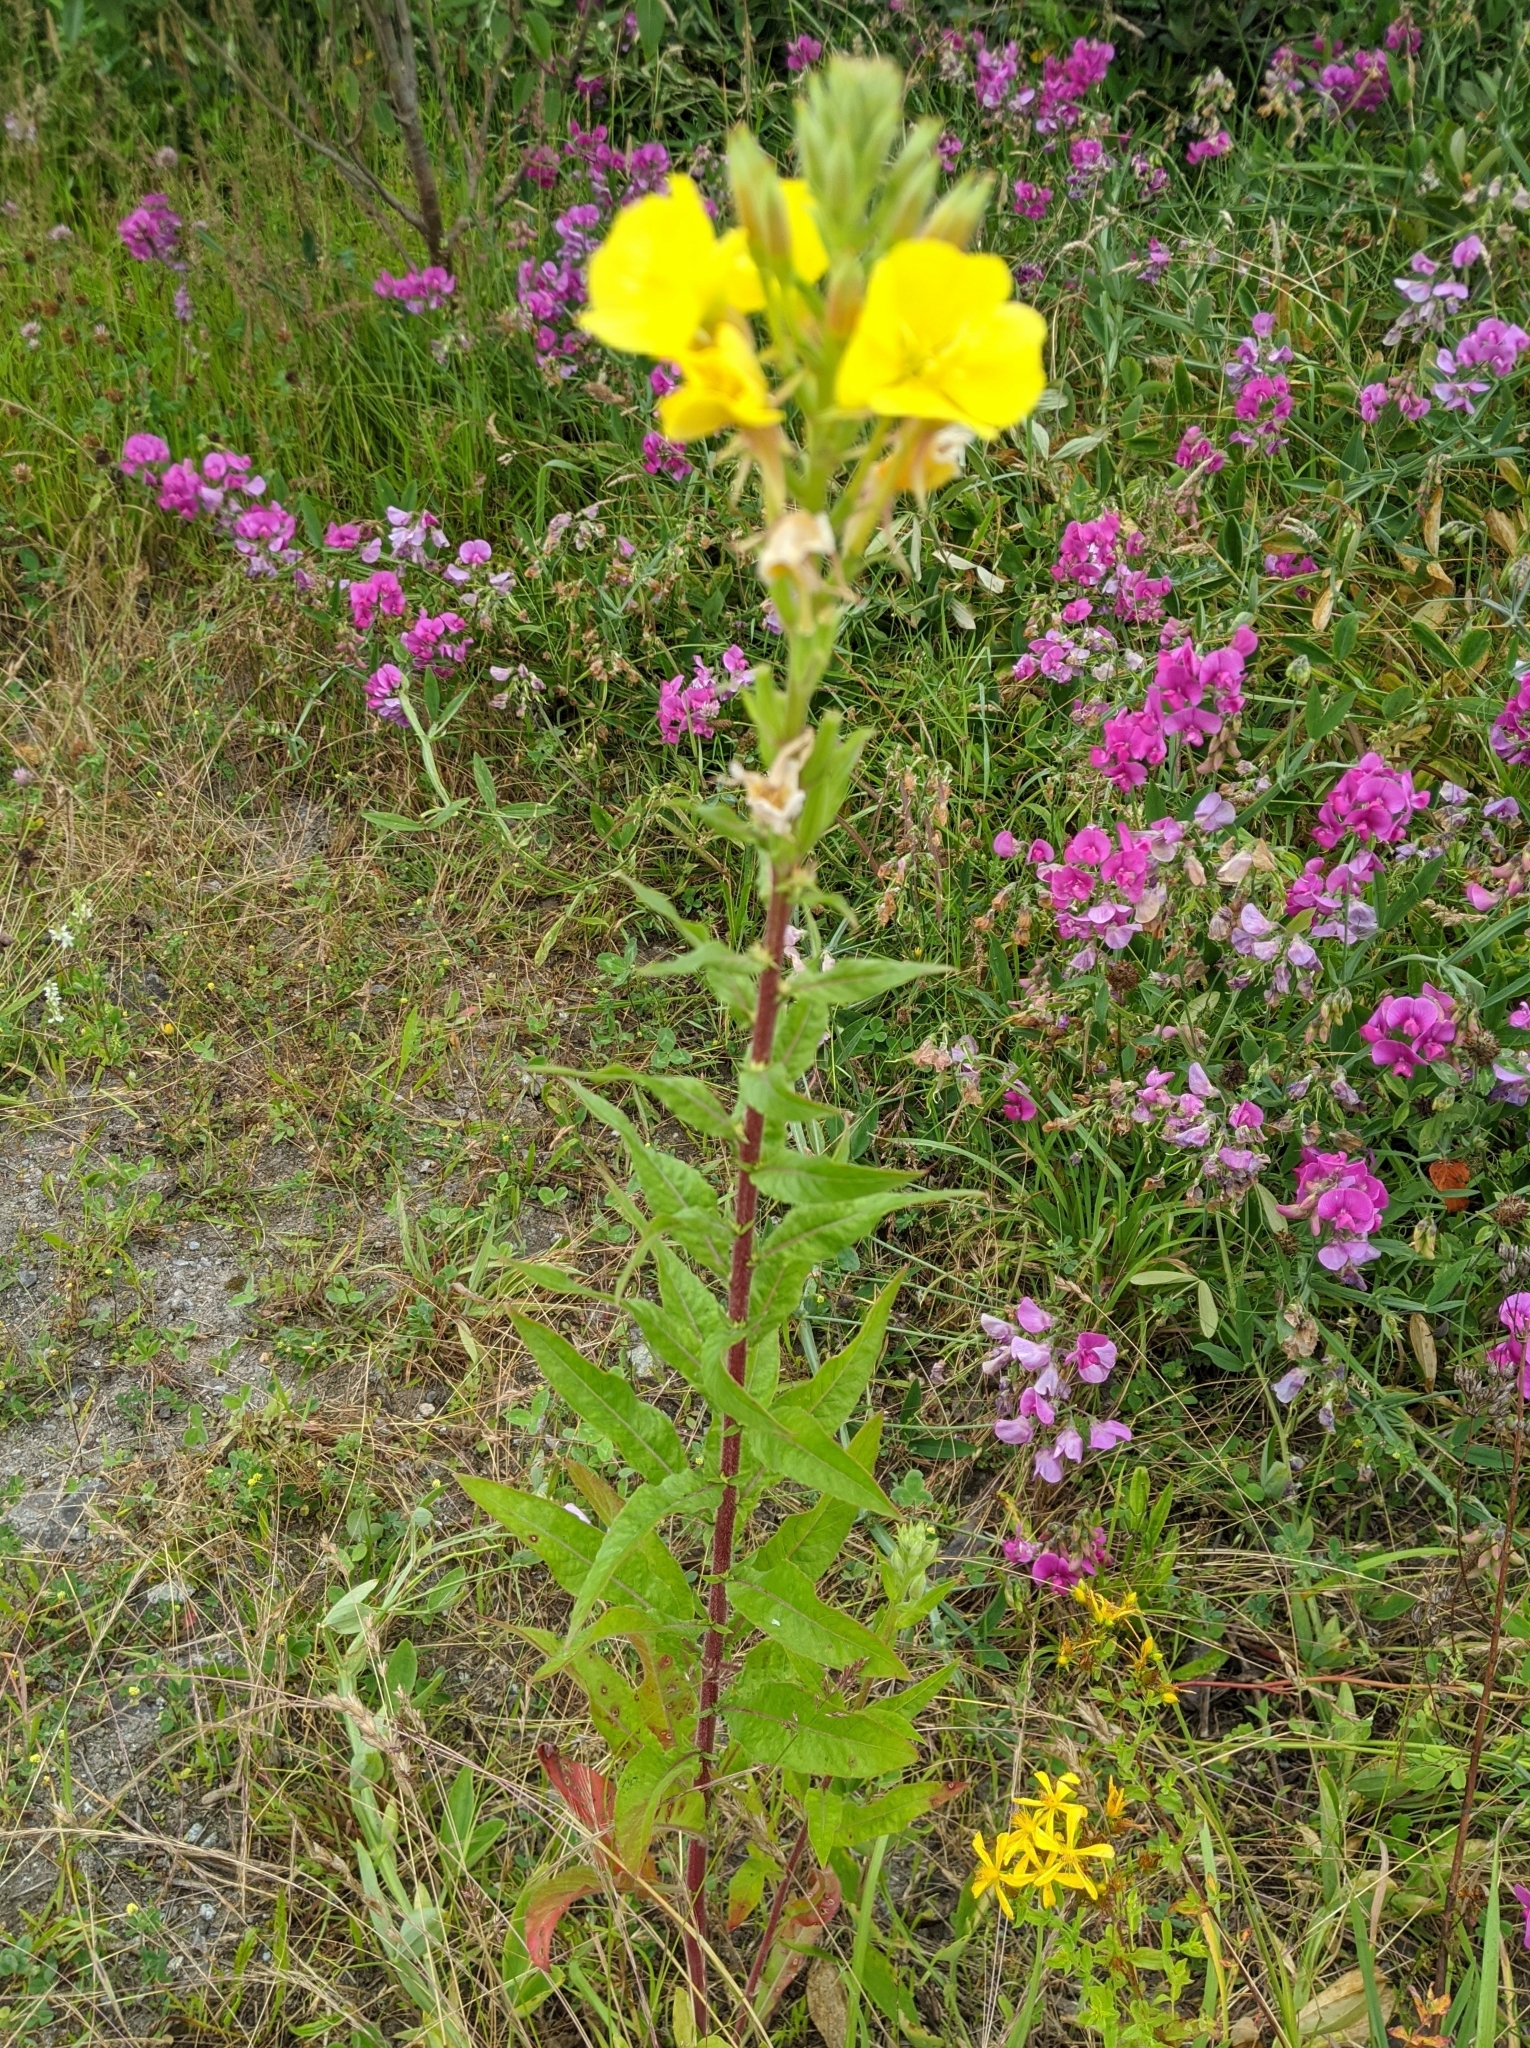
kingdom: Plantae
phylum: Tracheophyta
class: Magnoliopsida
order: Myrtales
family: Onagraceae
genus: Oenothera
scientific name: Oenothera biennis
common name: Common evening-primrose
